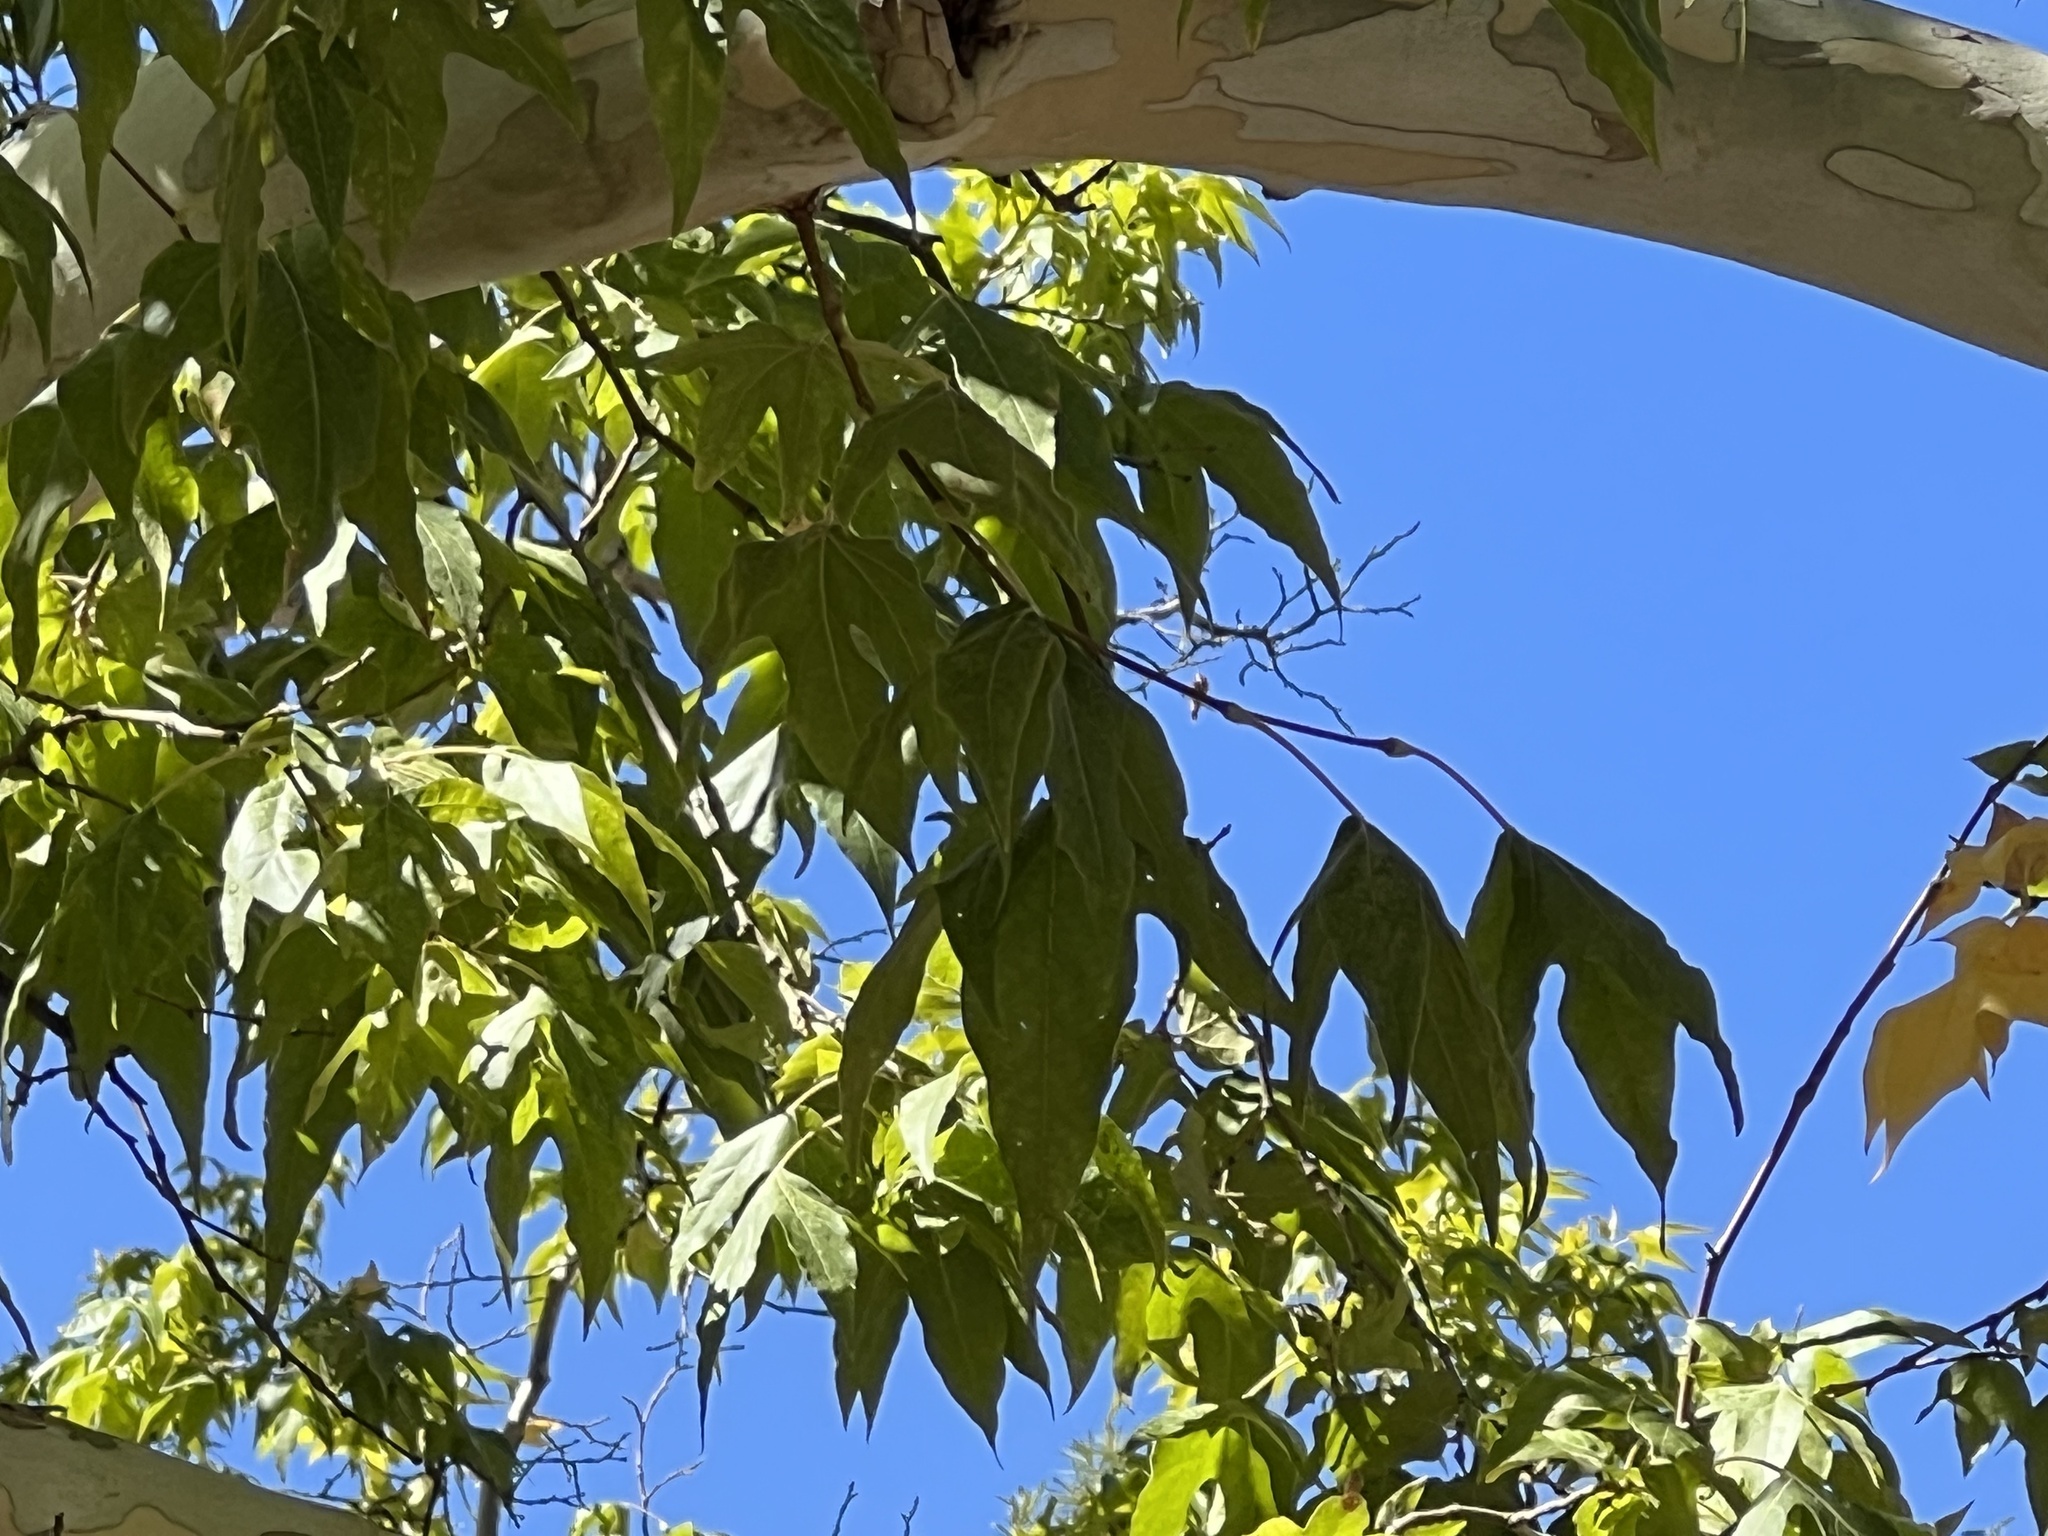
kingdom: Plantae
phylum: Tracheophyta
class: Magnoliopsida
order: Proteales
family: Platanaceae
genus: Platanus
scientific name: Platanus wrightii
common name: Arizona sycamore
